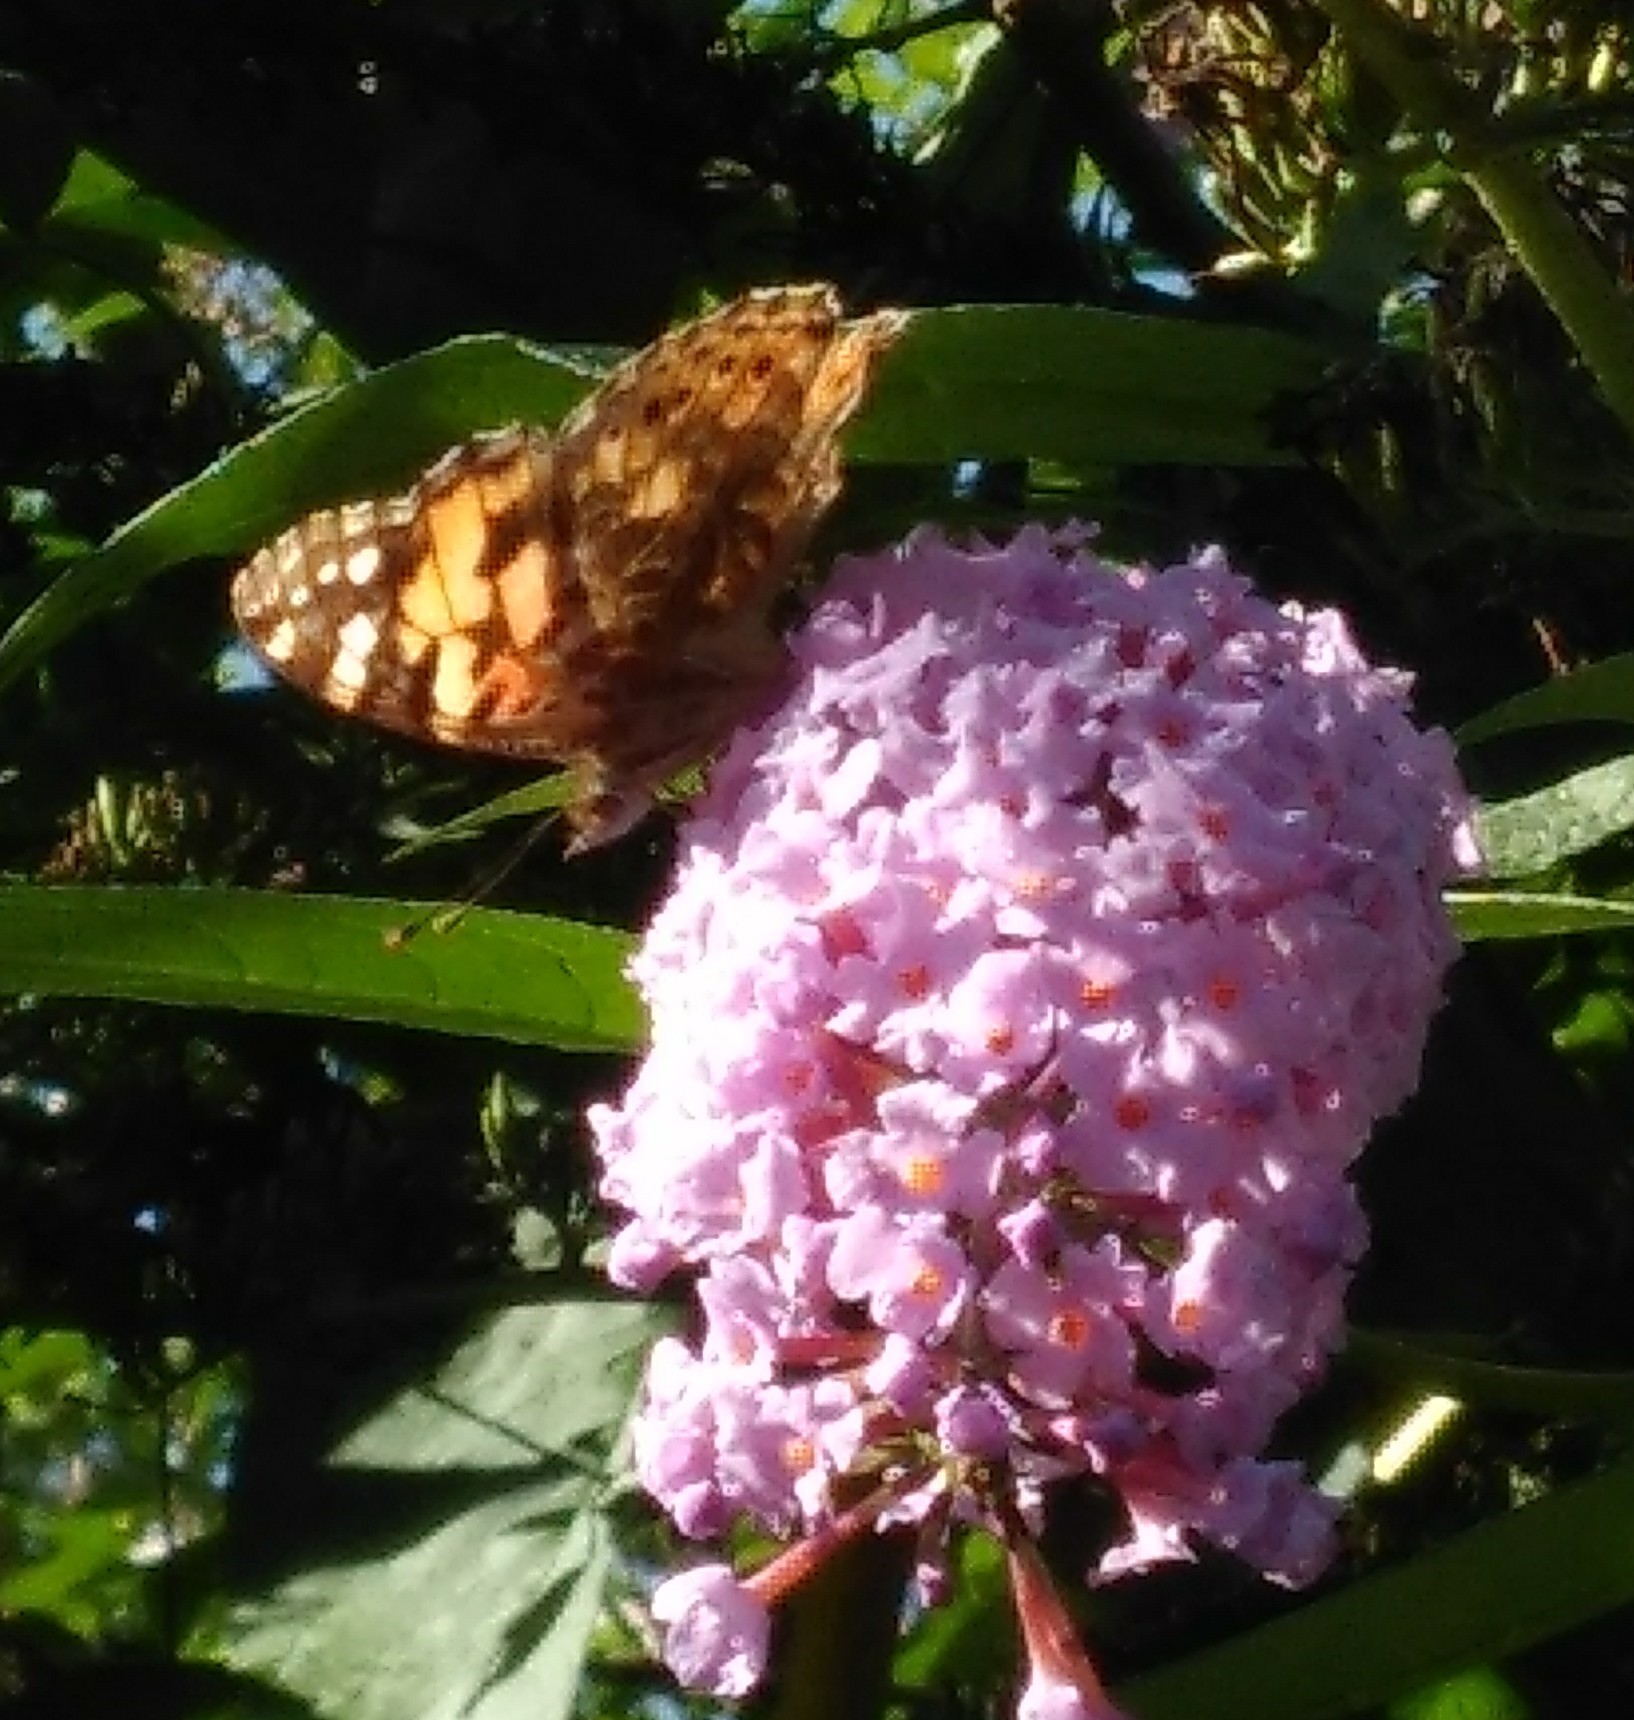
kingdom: Animalia
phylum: Arthropoda
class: Insecta
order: Lepidoptera
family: Nymphalidae
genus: Vanessa
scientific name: Vanessa cardui
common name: Painted lady
